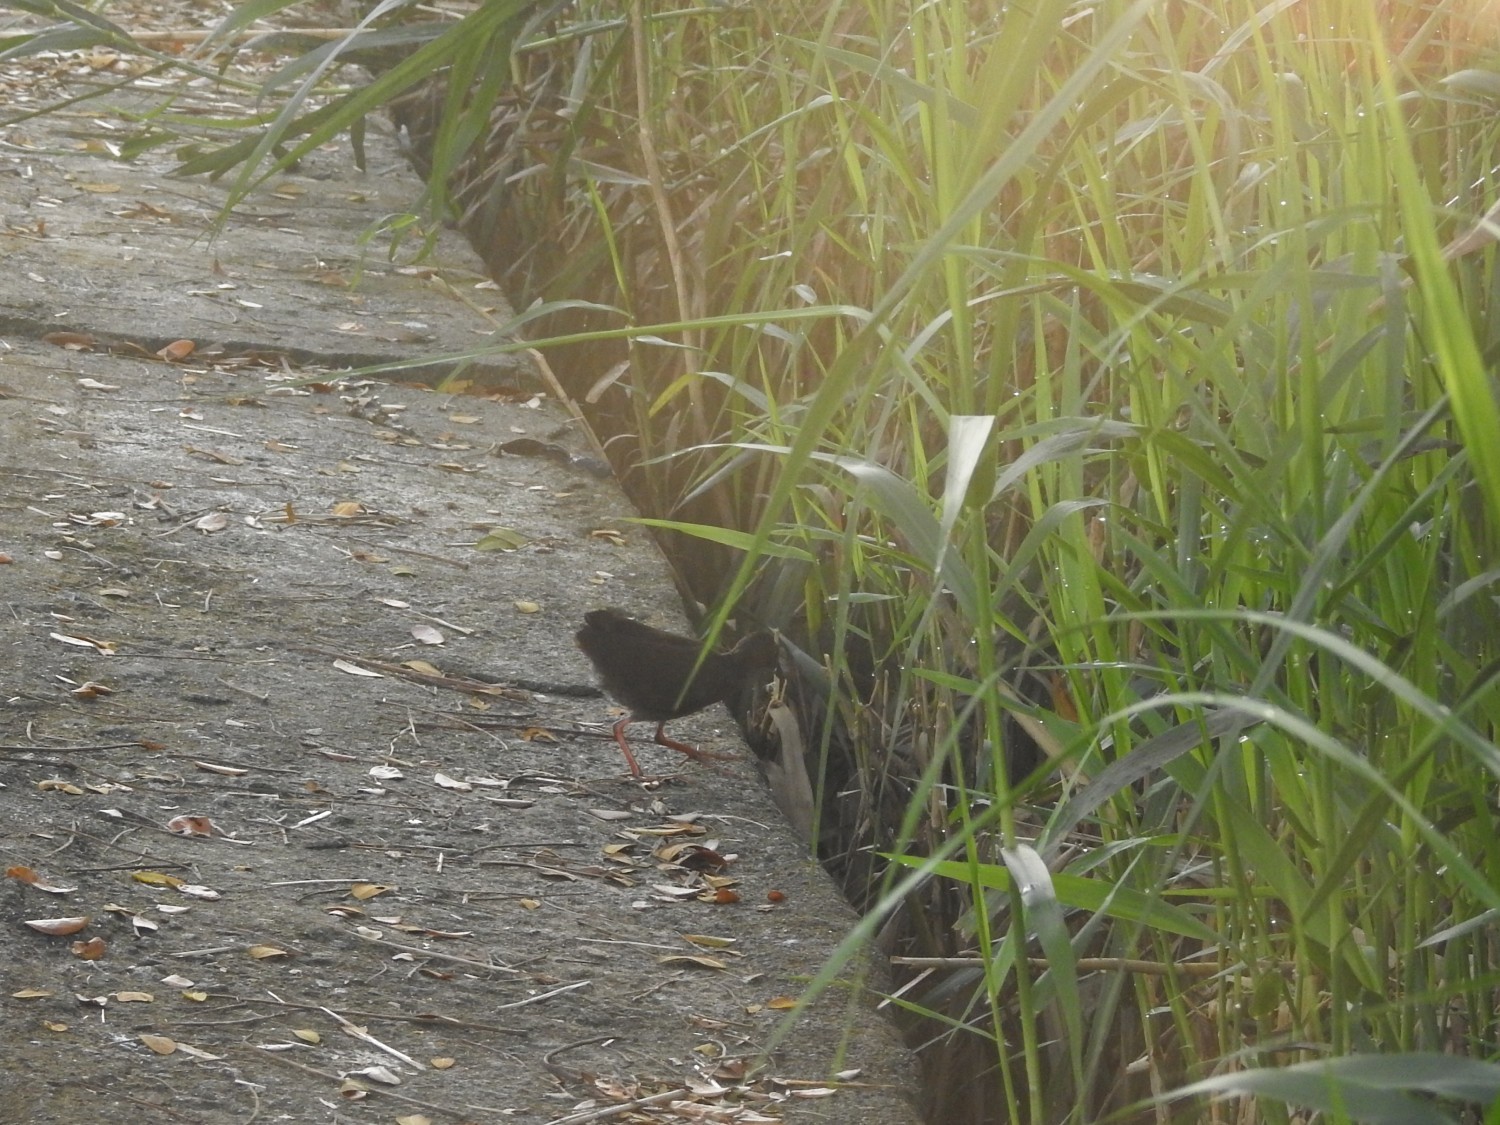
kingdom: Animalia
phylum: Chordata
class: Aves
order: Gruiformes
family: Rallidae
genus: Porzana
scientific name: Porzana fusca
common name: Ruddy-breasted crake
